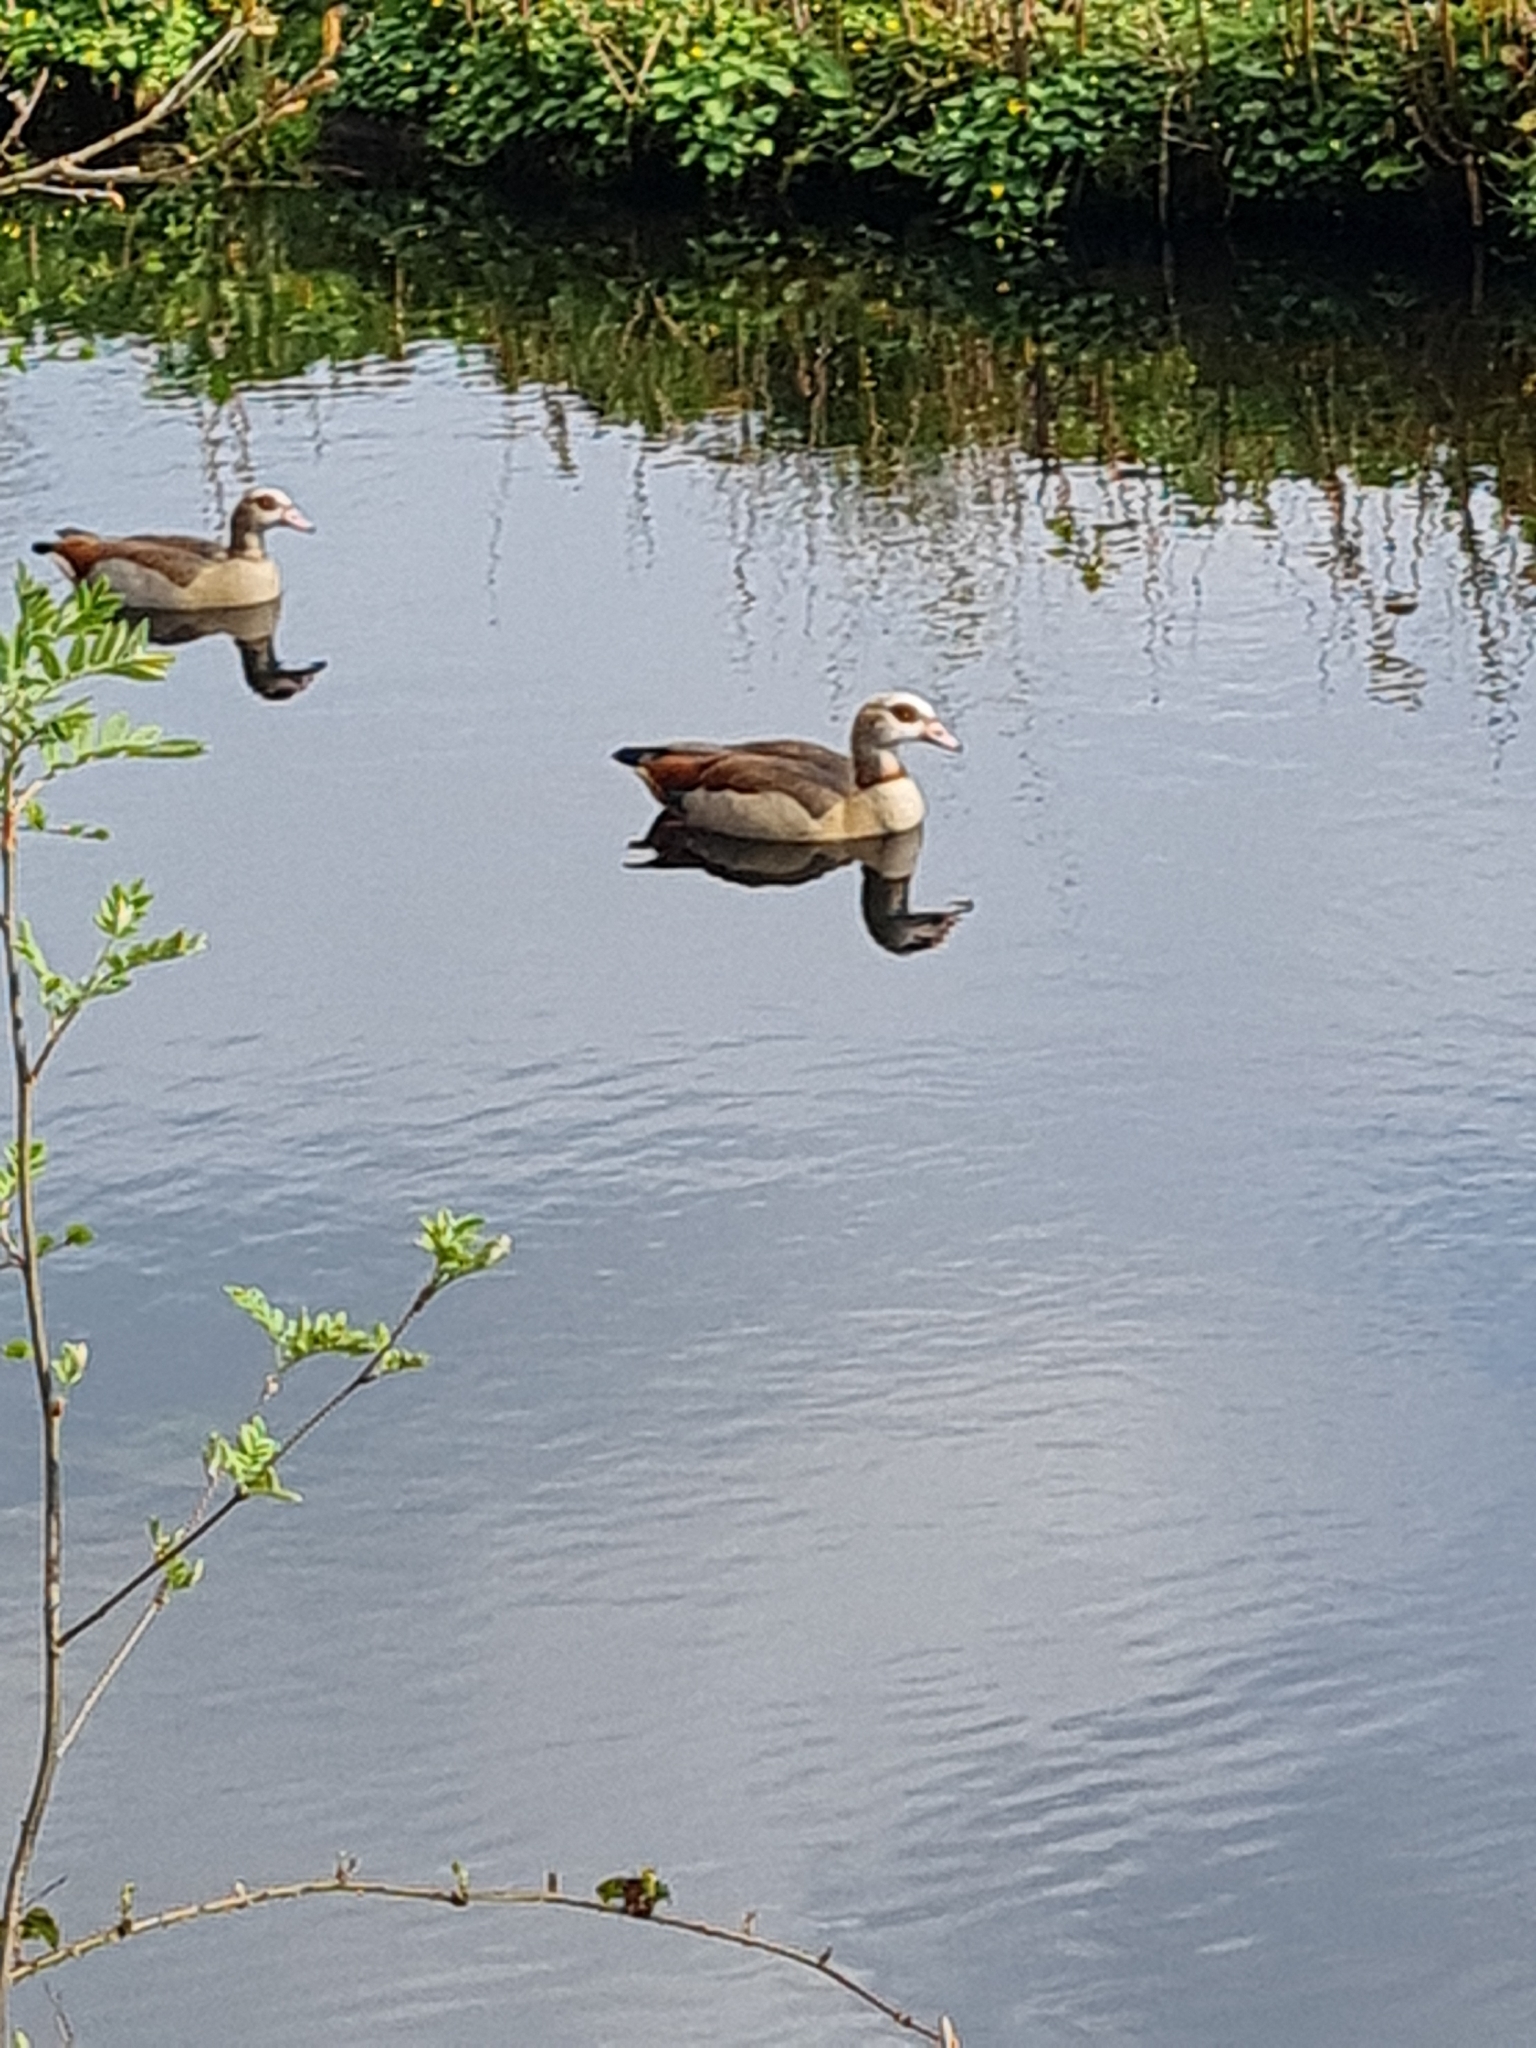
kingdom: Animalia
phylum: Chordata
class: Aves
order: Anseriformes
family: Anatidae
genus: Alopochen
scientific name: Alopochen aegyptiaca
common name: Egyptian goose
